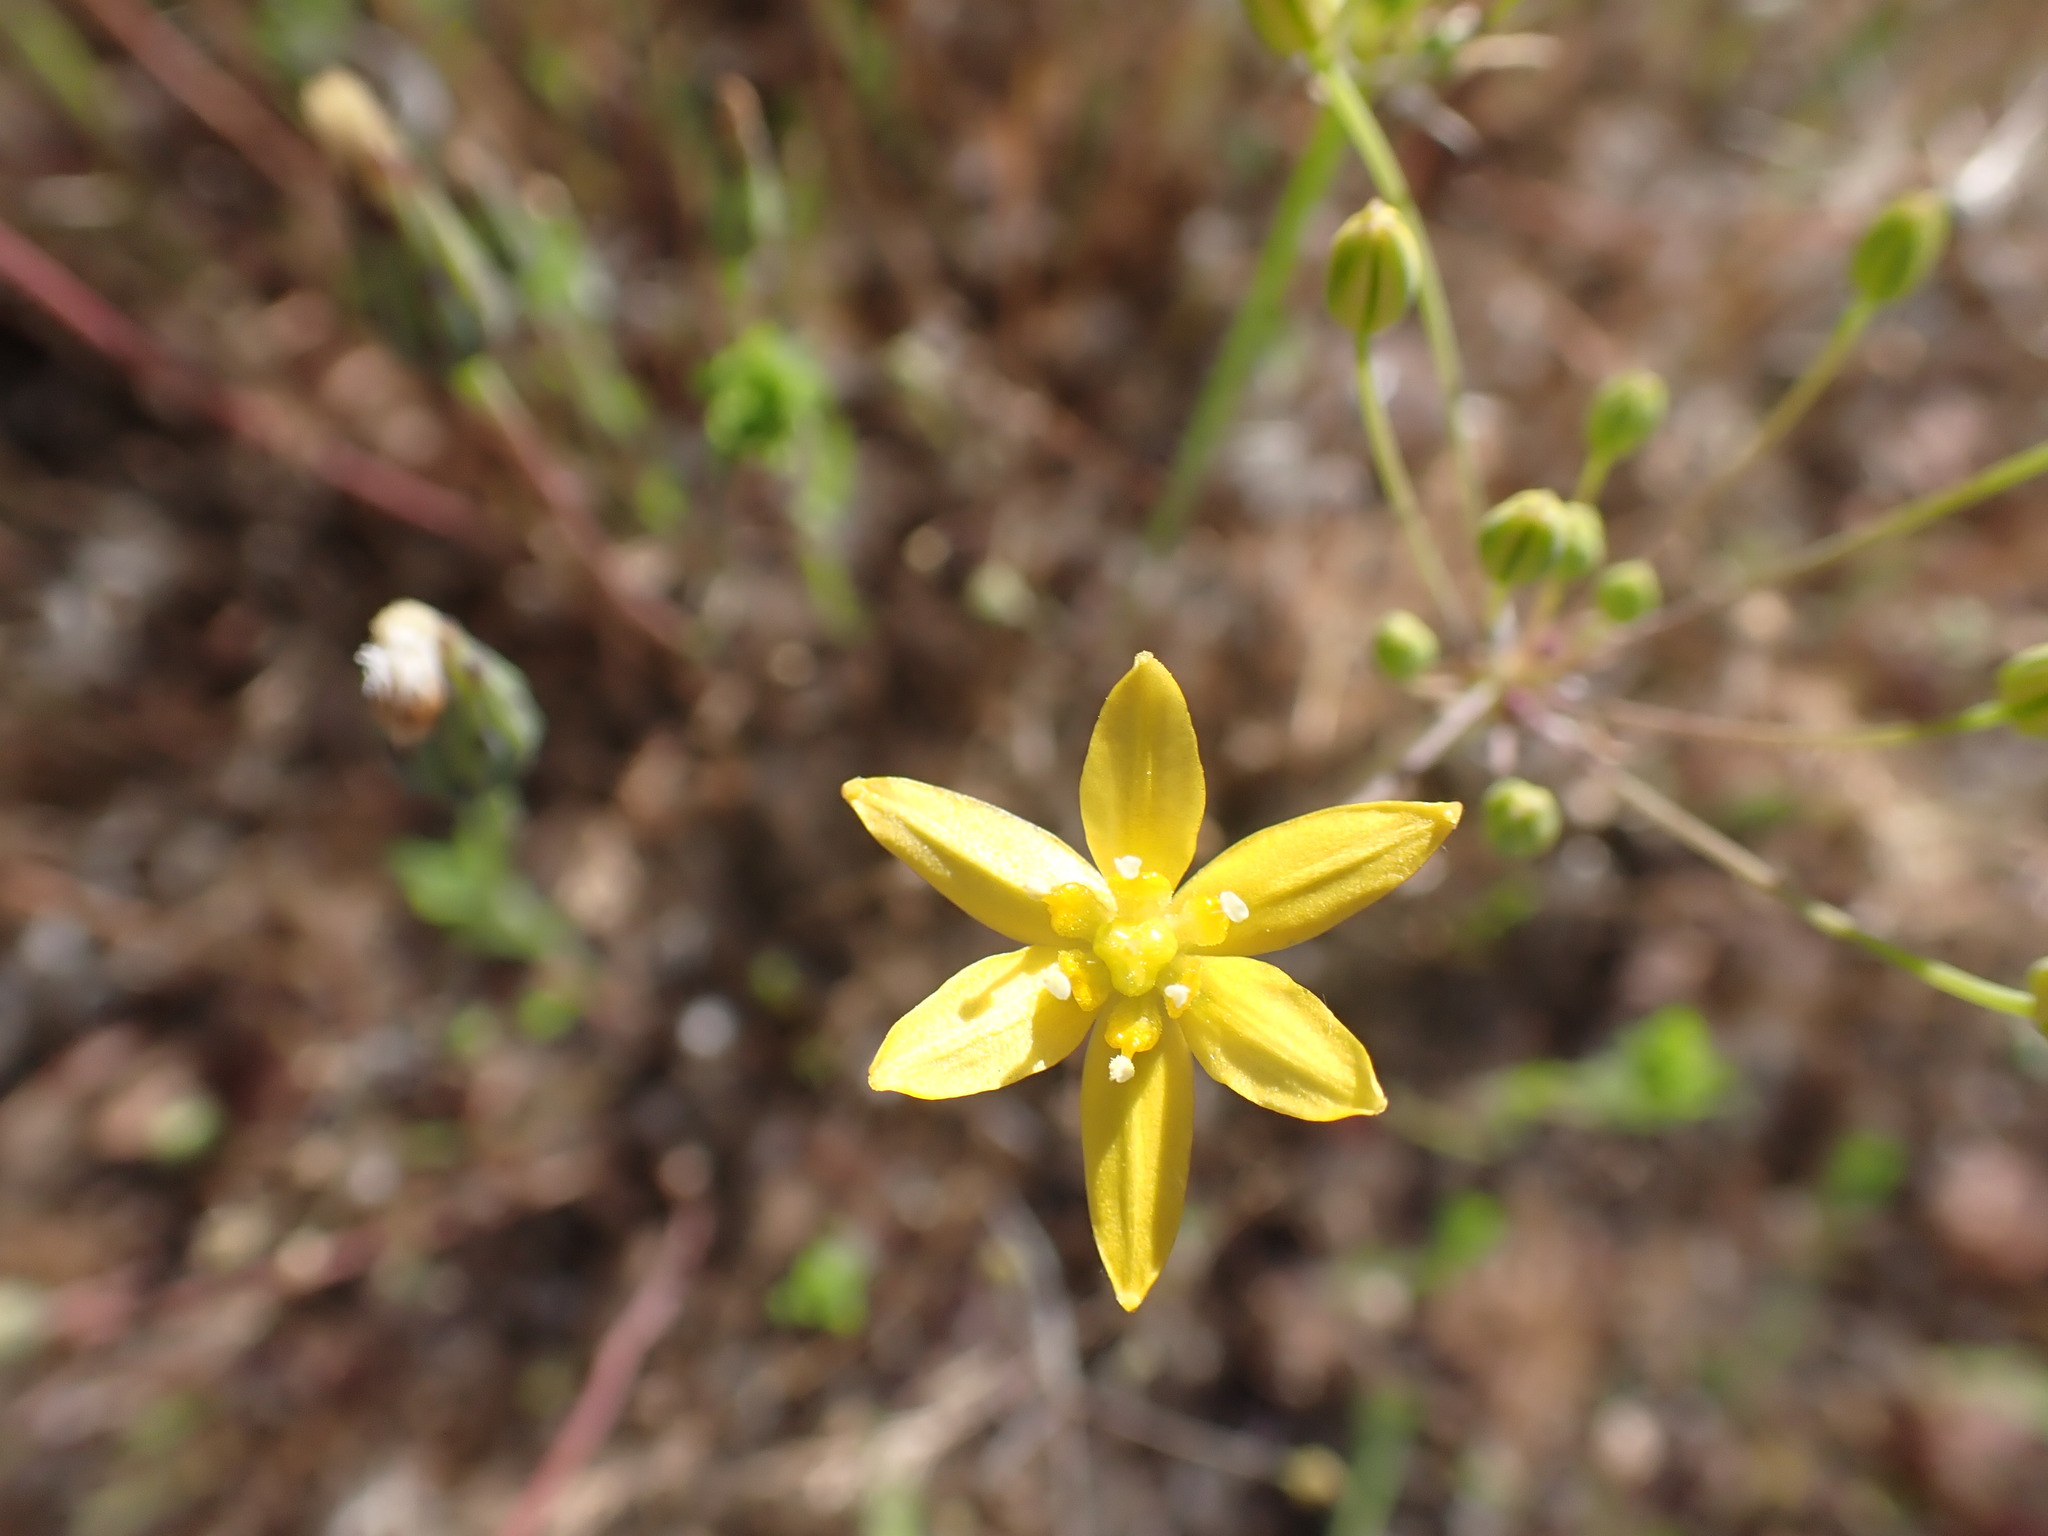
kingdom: Plantae
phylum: Tracheophyta
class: Liliopsida
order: Asparagales
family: Asparagaceae
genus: Bloomeria
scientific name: Bloomeria clevelandii
